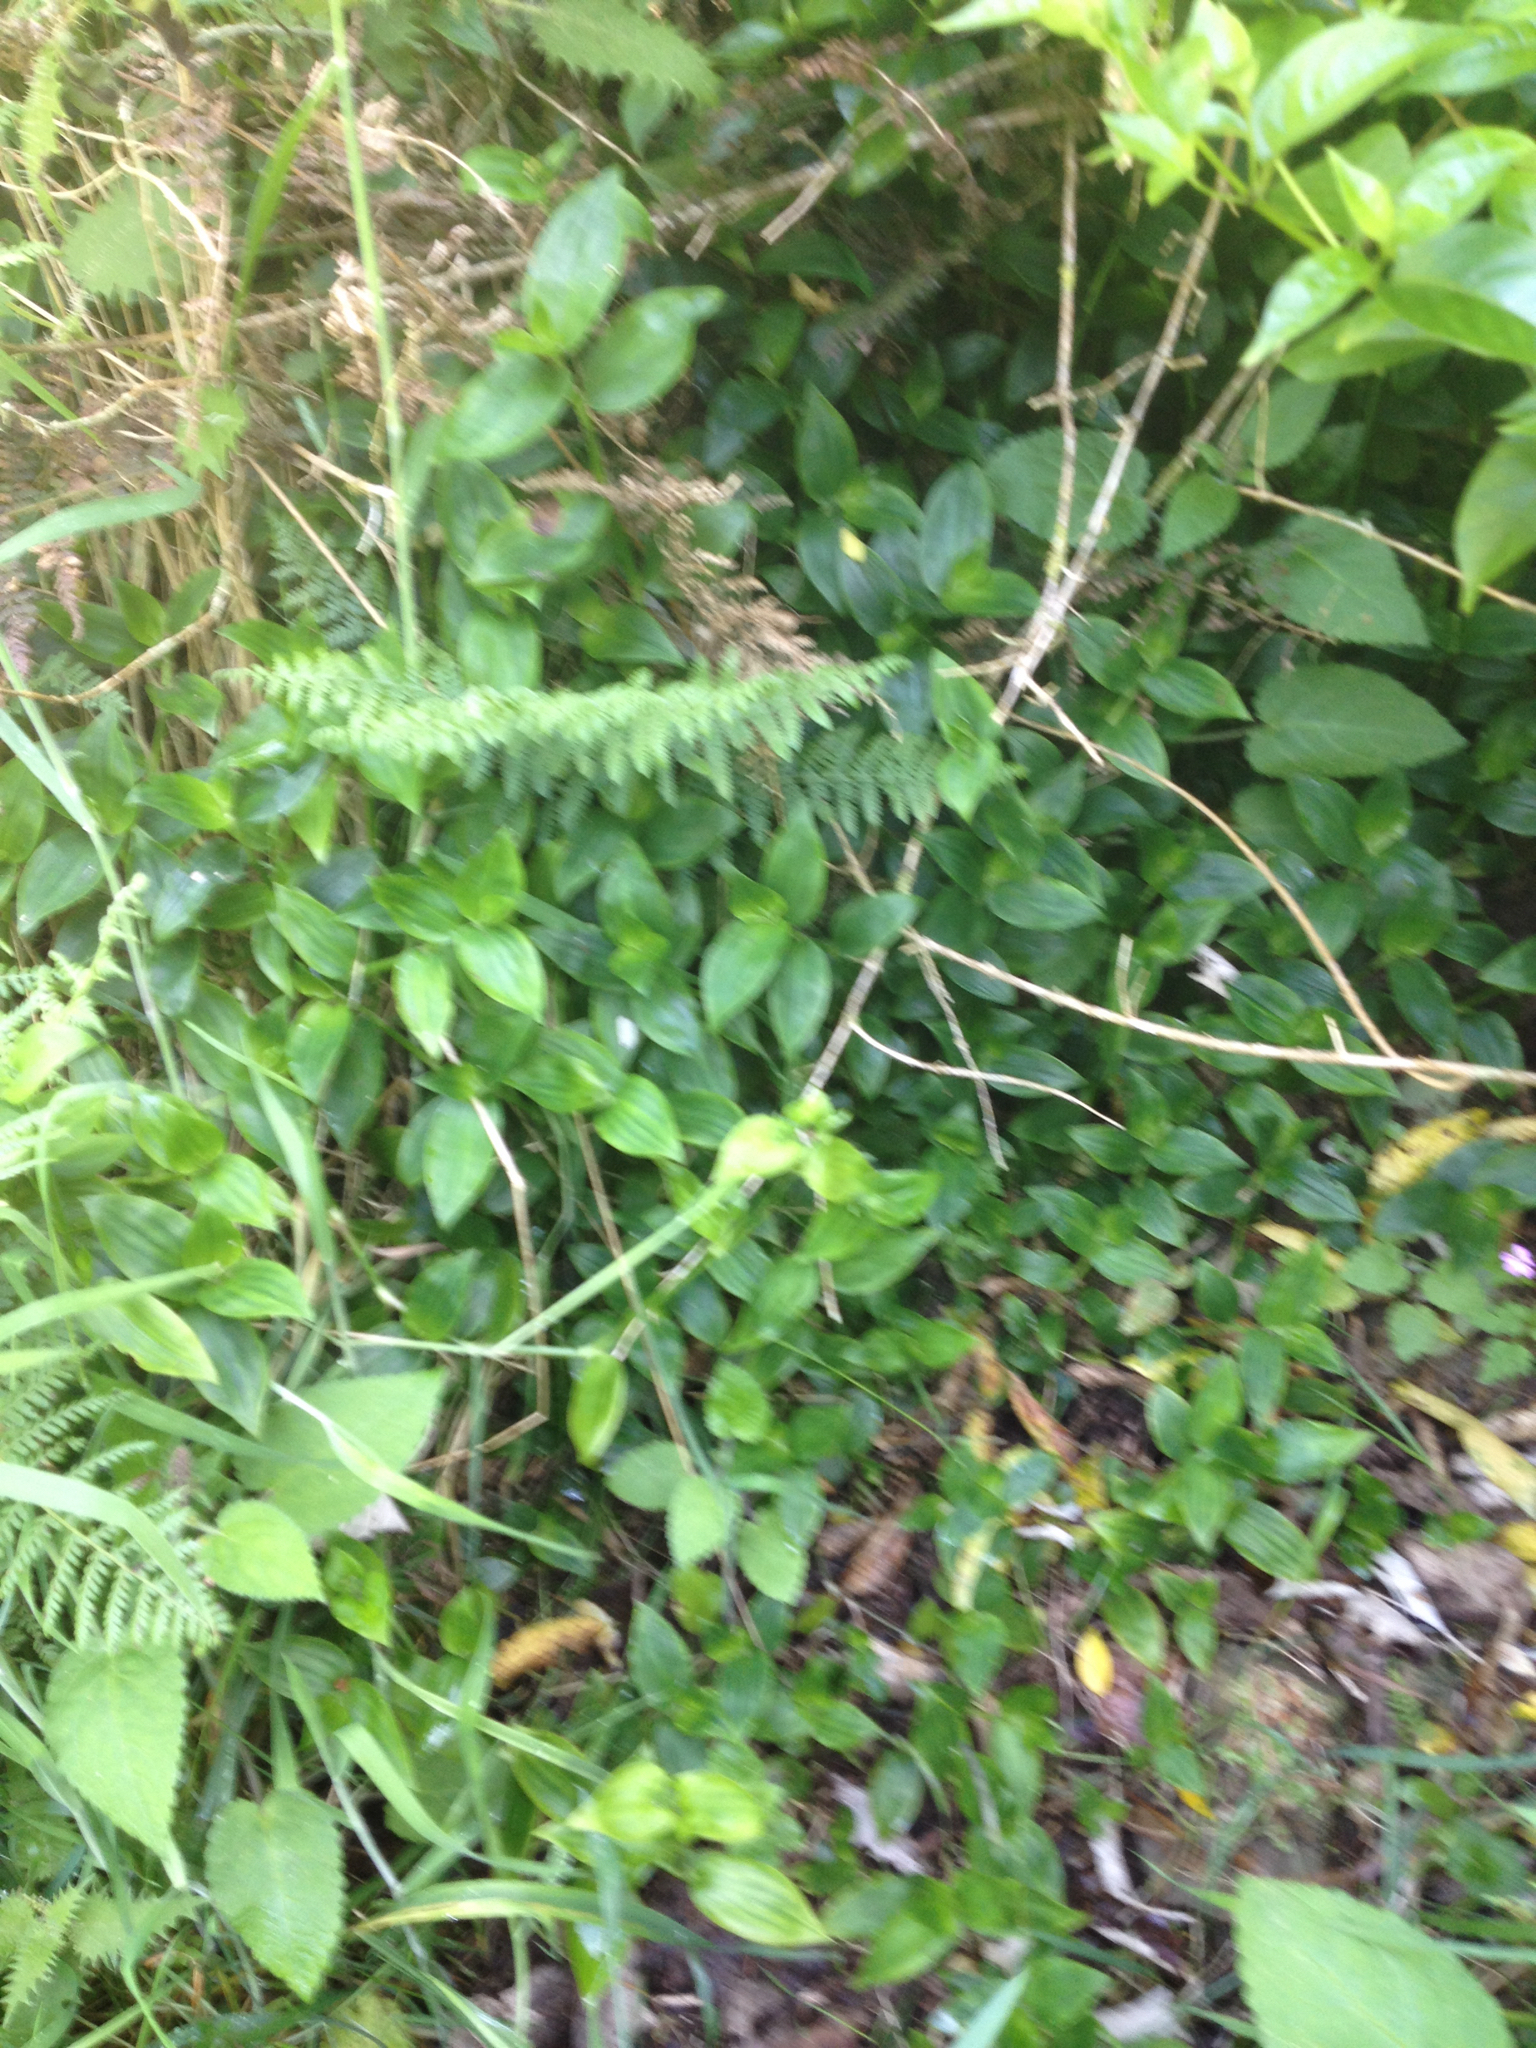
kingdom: Plantae
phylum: Tracheophyta
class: Liliopsida
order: Commelinales
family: Commelinaceae
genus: Tradescantia
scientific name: Tradescantia fluminensis
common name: Wandering-jew
